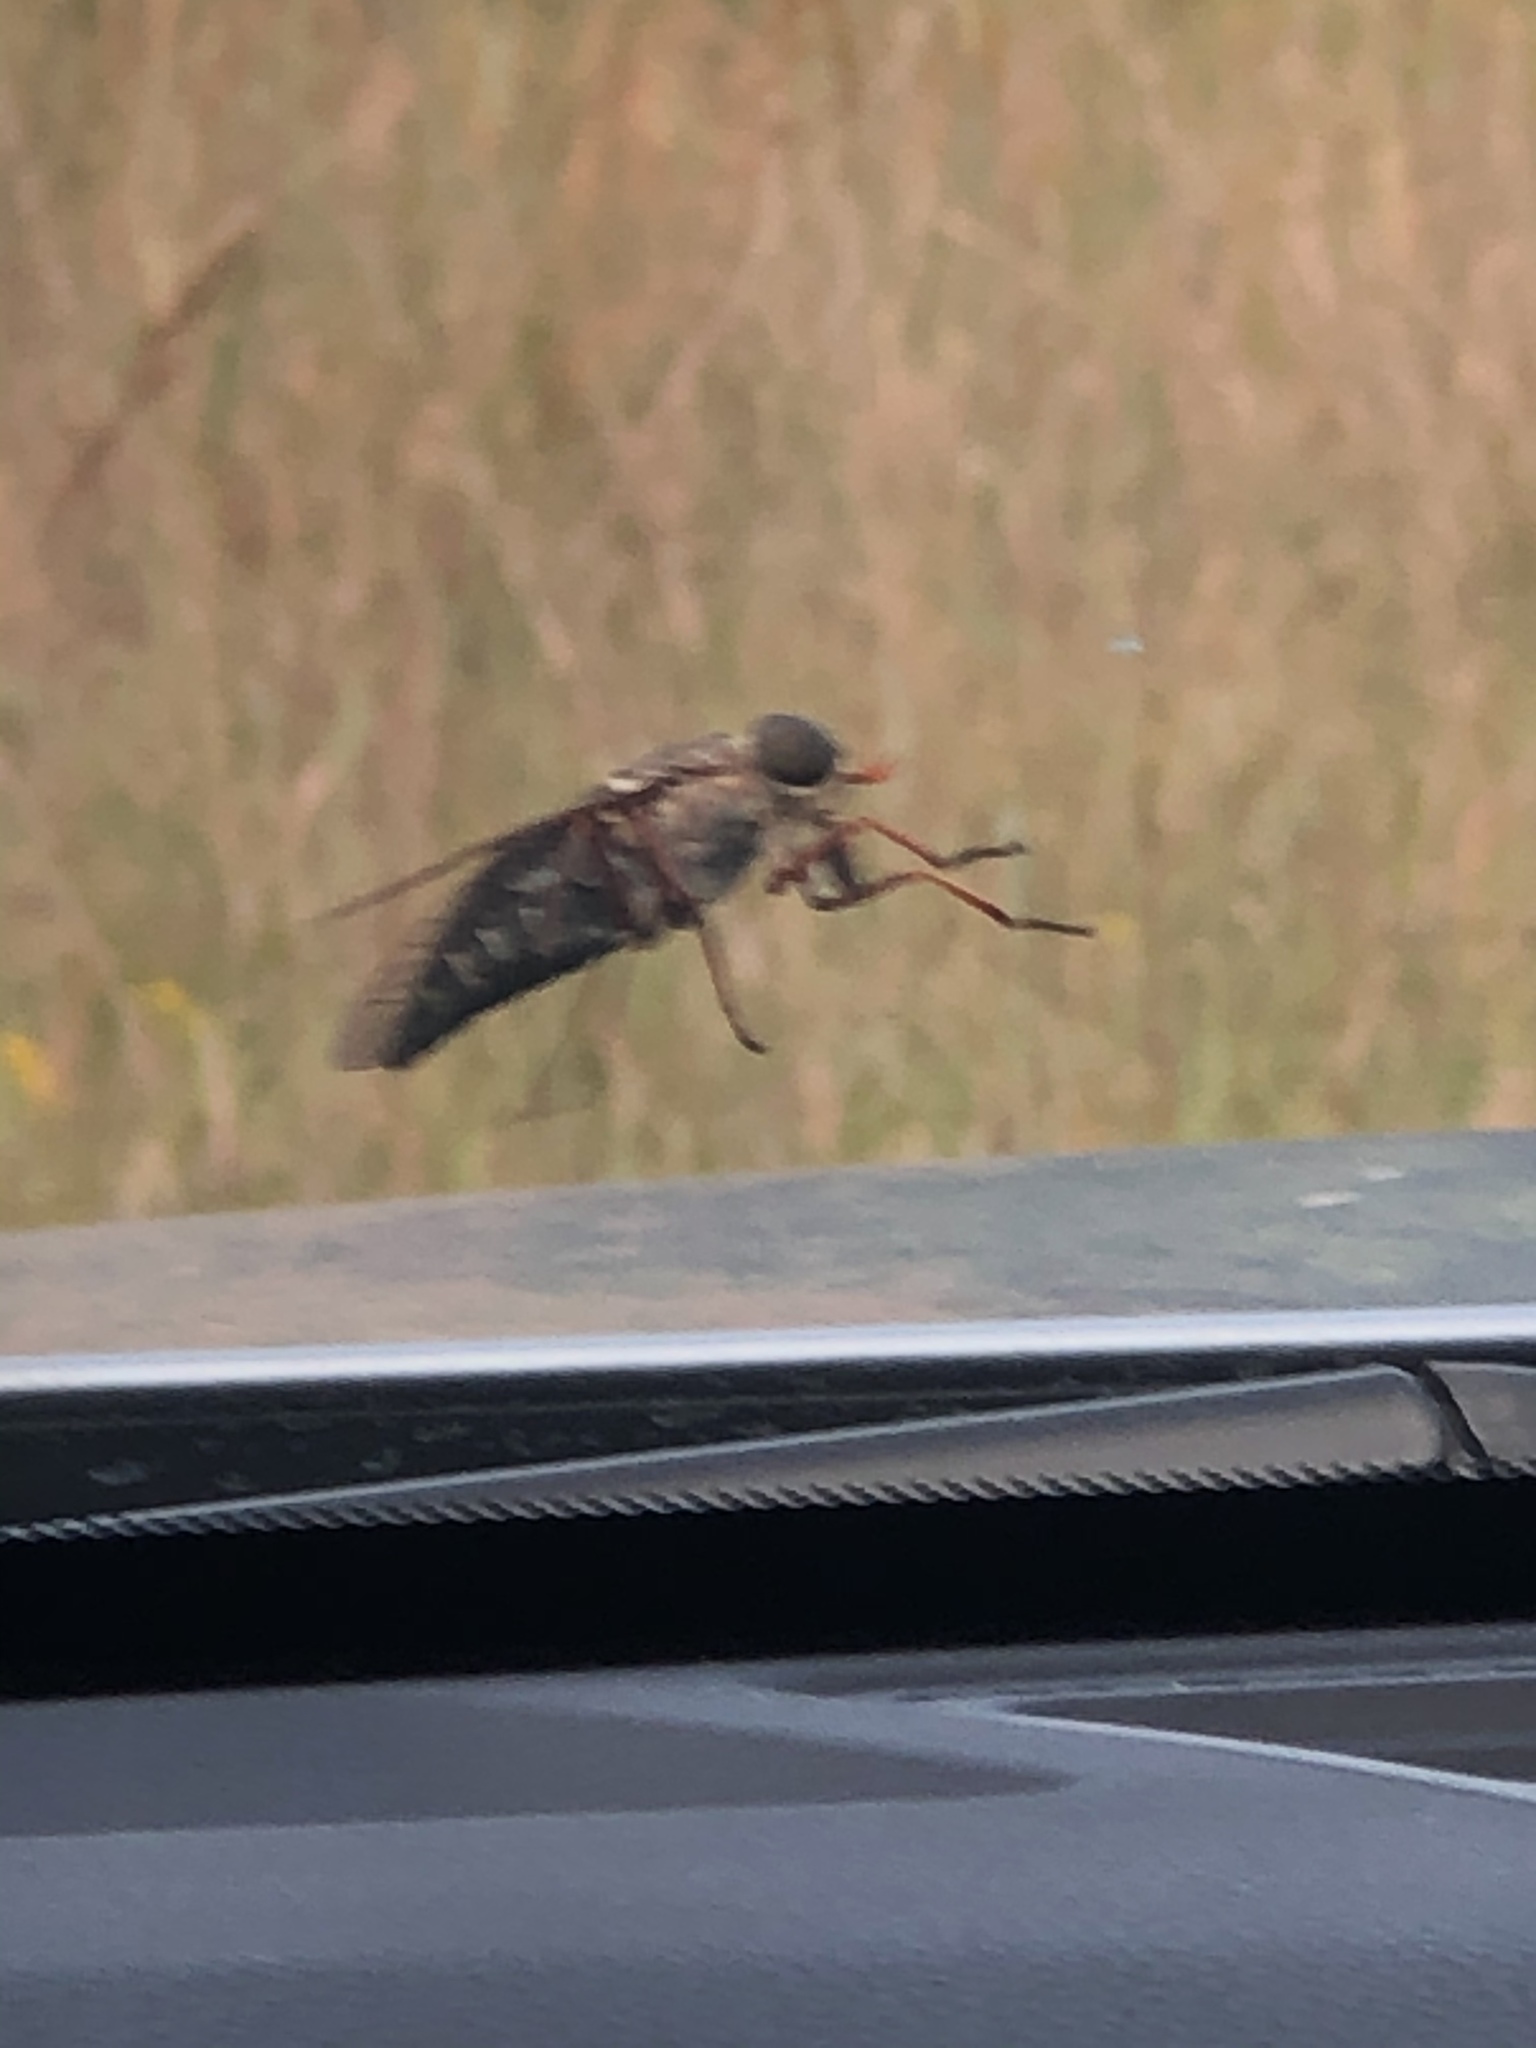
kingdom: Animalia
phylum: Arthropoda
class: Insecta
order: Diptera
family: Tabanidae
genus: Tabanus
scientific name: Tabanus americanus
